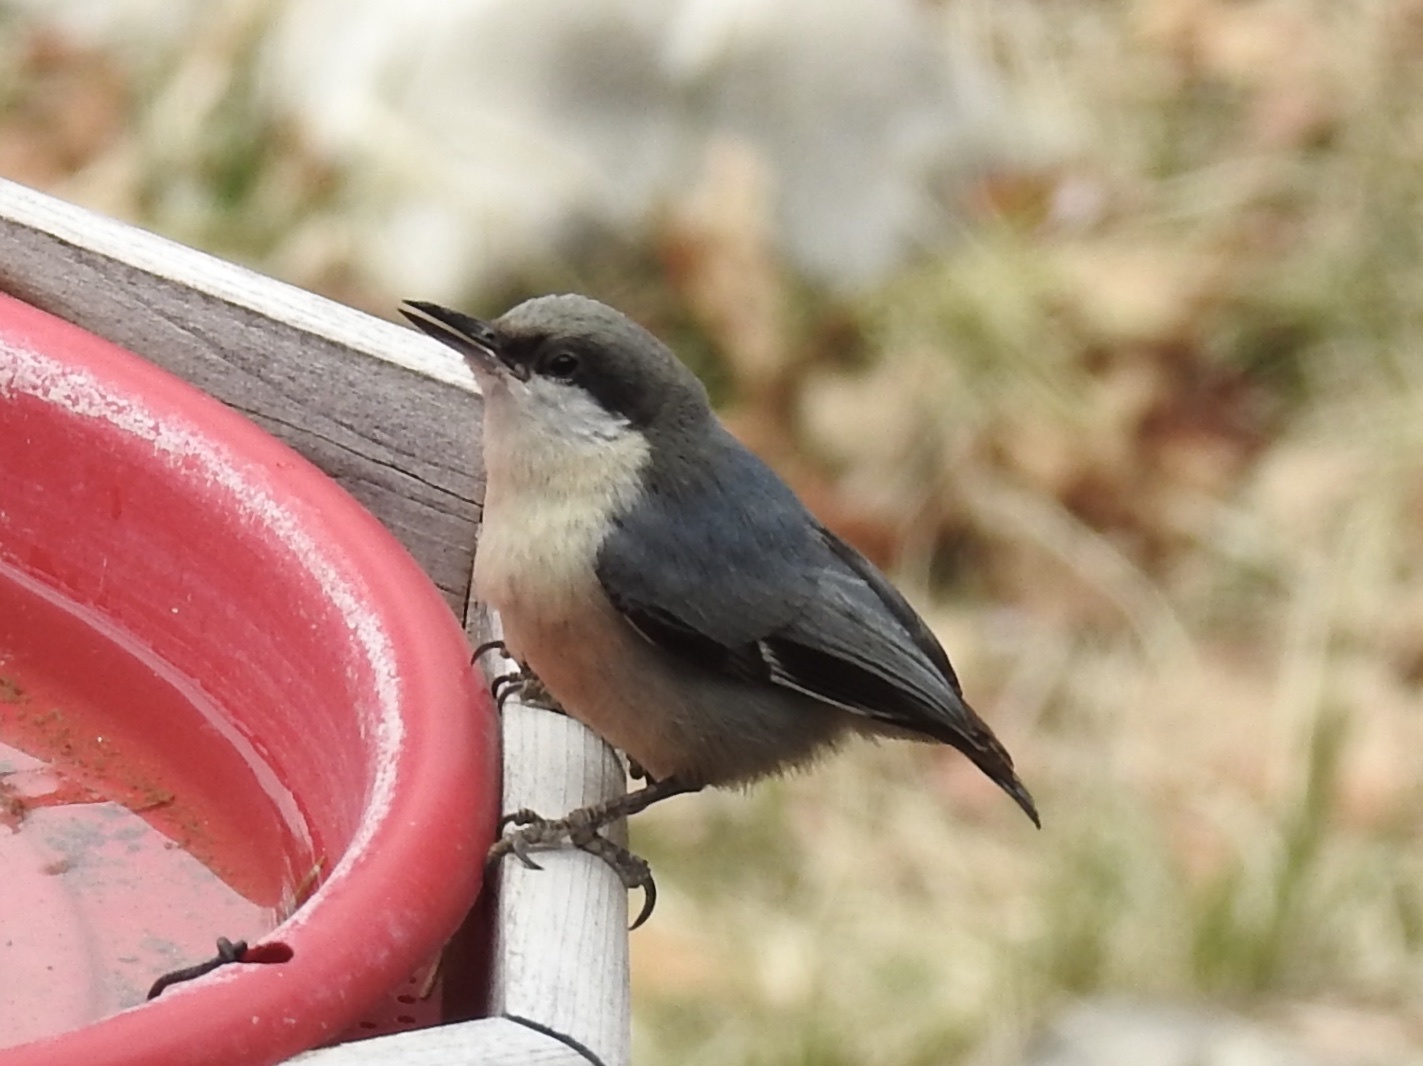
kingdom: Animalia
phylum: Chordata
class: Aves
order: Passeriformes
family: Sittidae
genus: Sitta
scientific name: Sitta pygmaea
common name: Pygmy nuthatch
